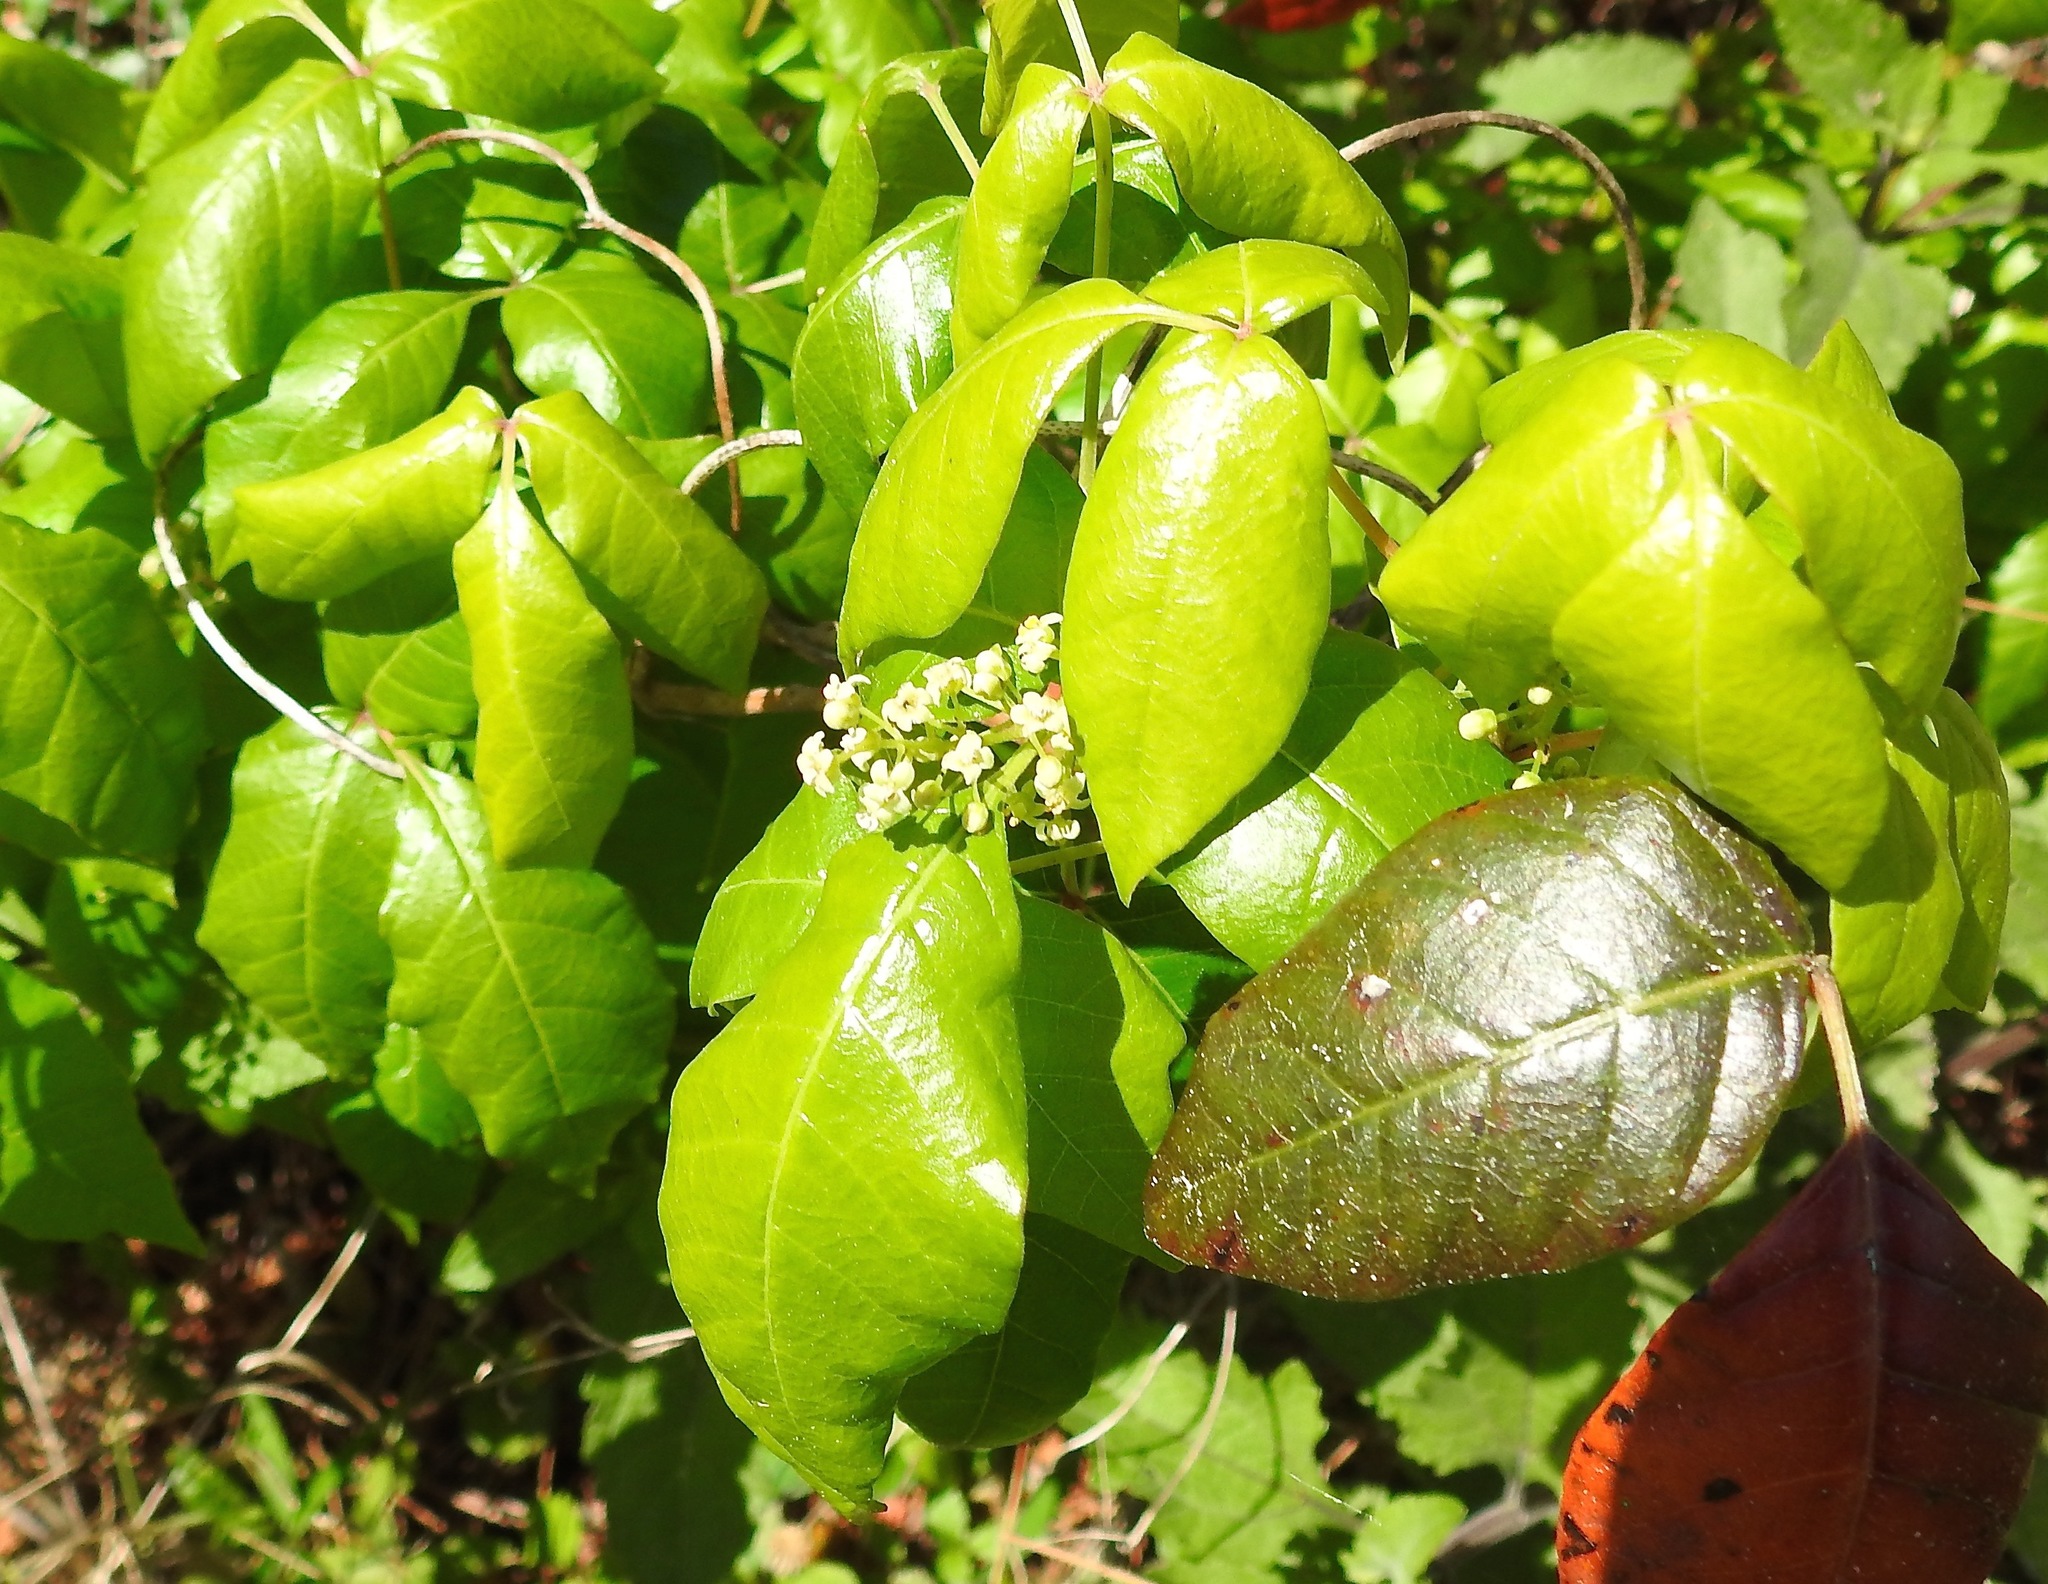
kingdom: Plantae
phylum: Tracheophyta
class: Magnoliopsida
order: Sapindales
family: Anacardiaceae
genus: Toxicodendron
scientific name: Toxicodendron radicans
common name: Poison ivy
